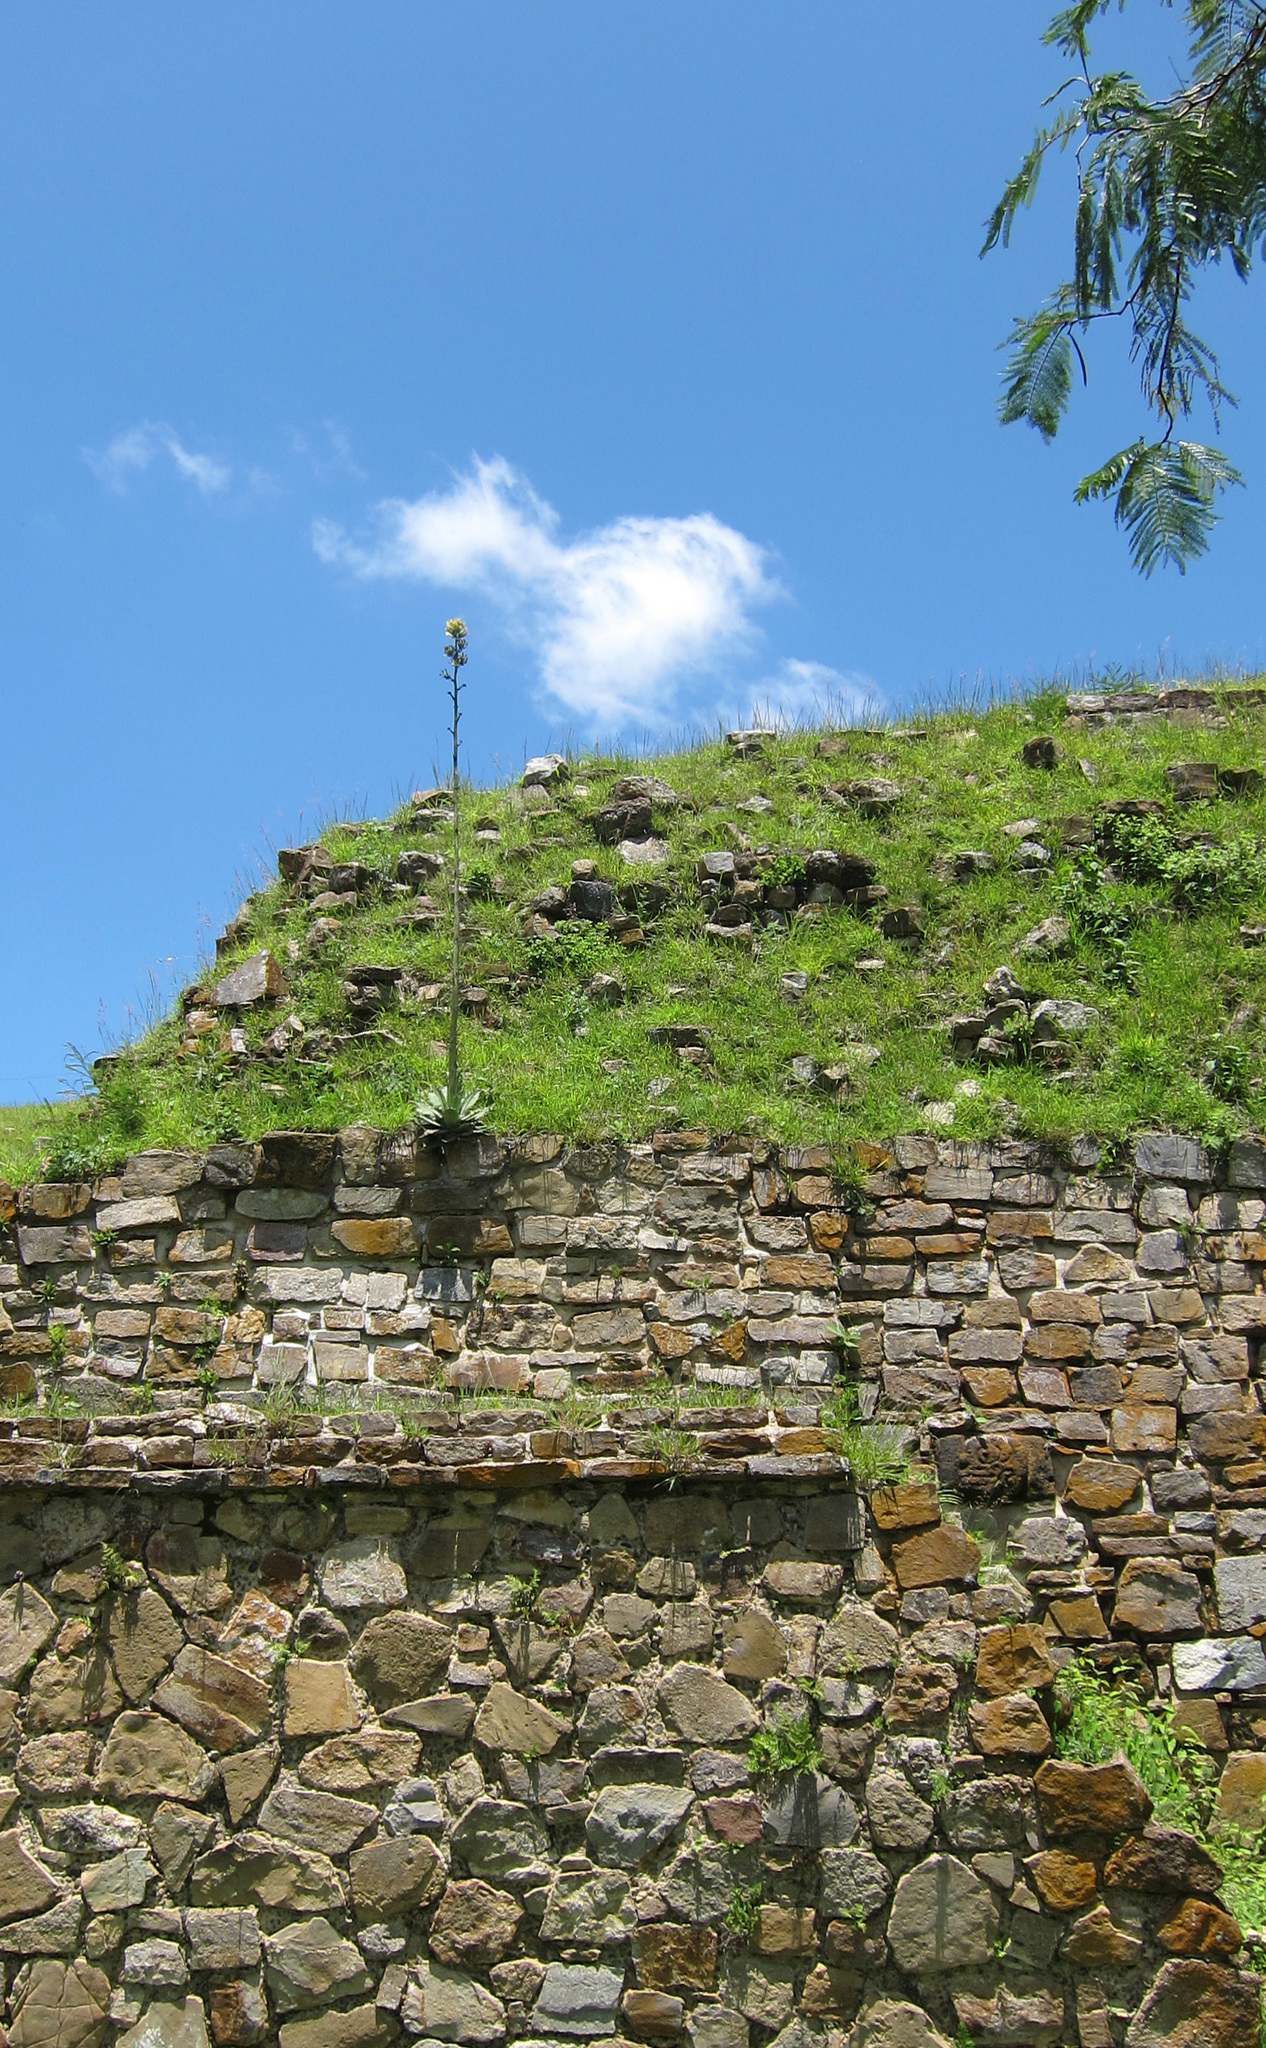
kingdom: Plantae
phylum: Tracheophyta
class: Liliopsida
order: Asparagales
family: Asparagaceae
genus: Agave
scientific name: Agave seemanniana
